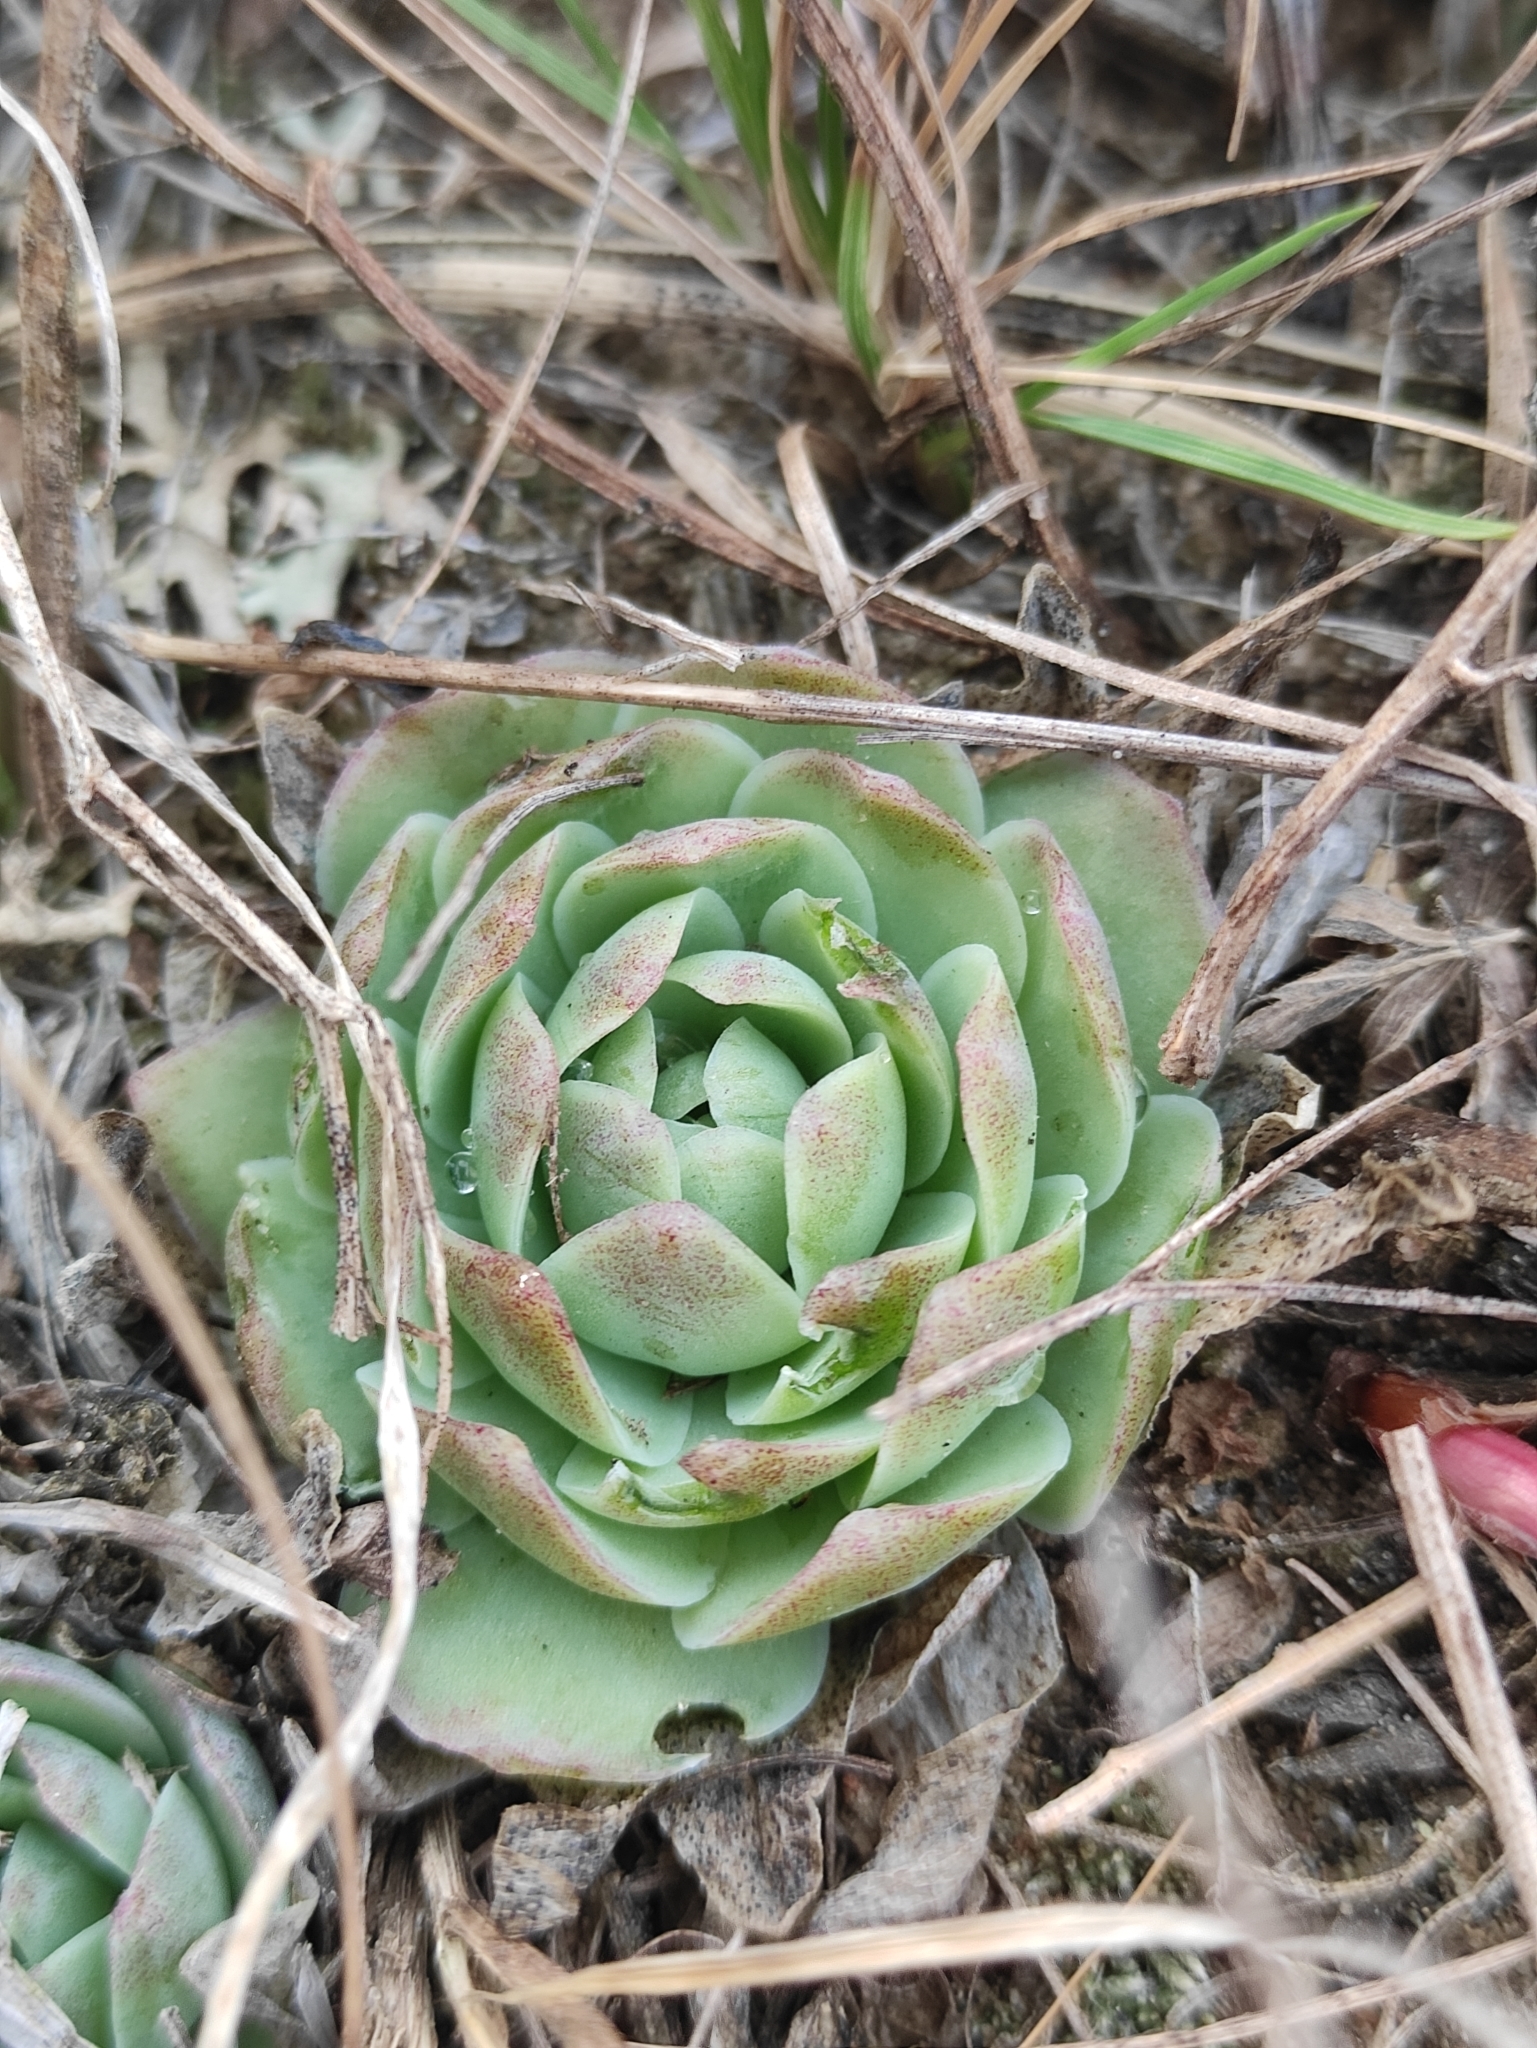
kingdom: Plantae
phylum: Tracheophyta
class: Magnoliopsida
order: Saxifragales
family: Crassulaceae
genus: Orostachys
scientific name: Orostachys malacophylla
